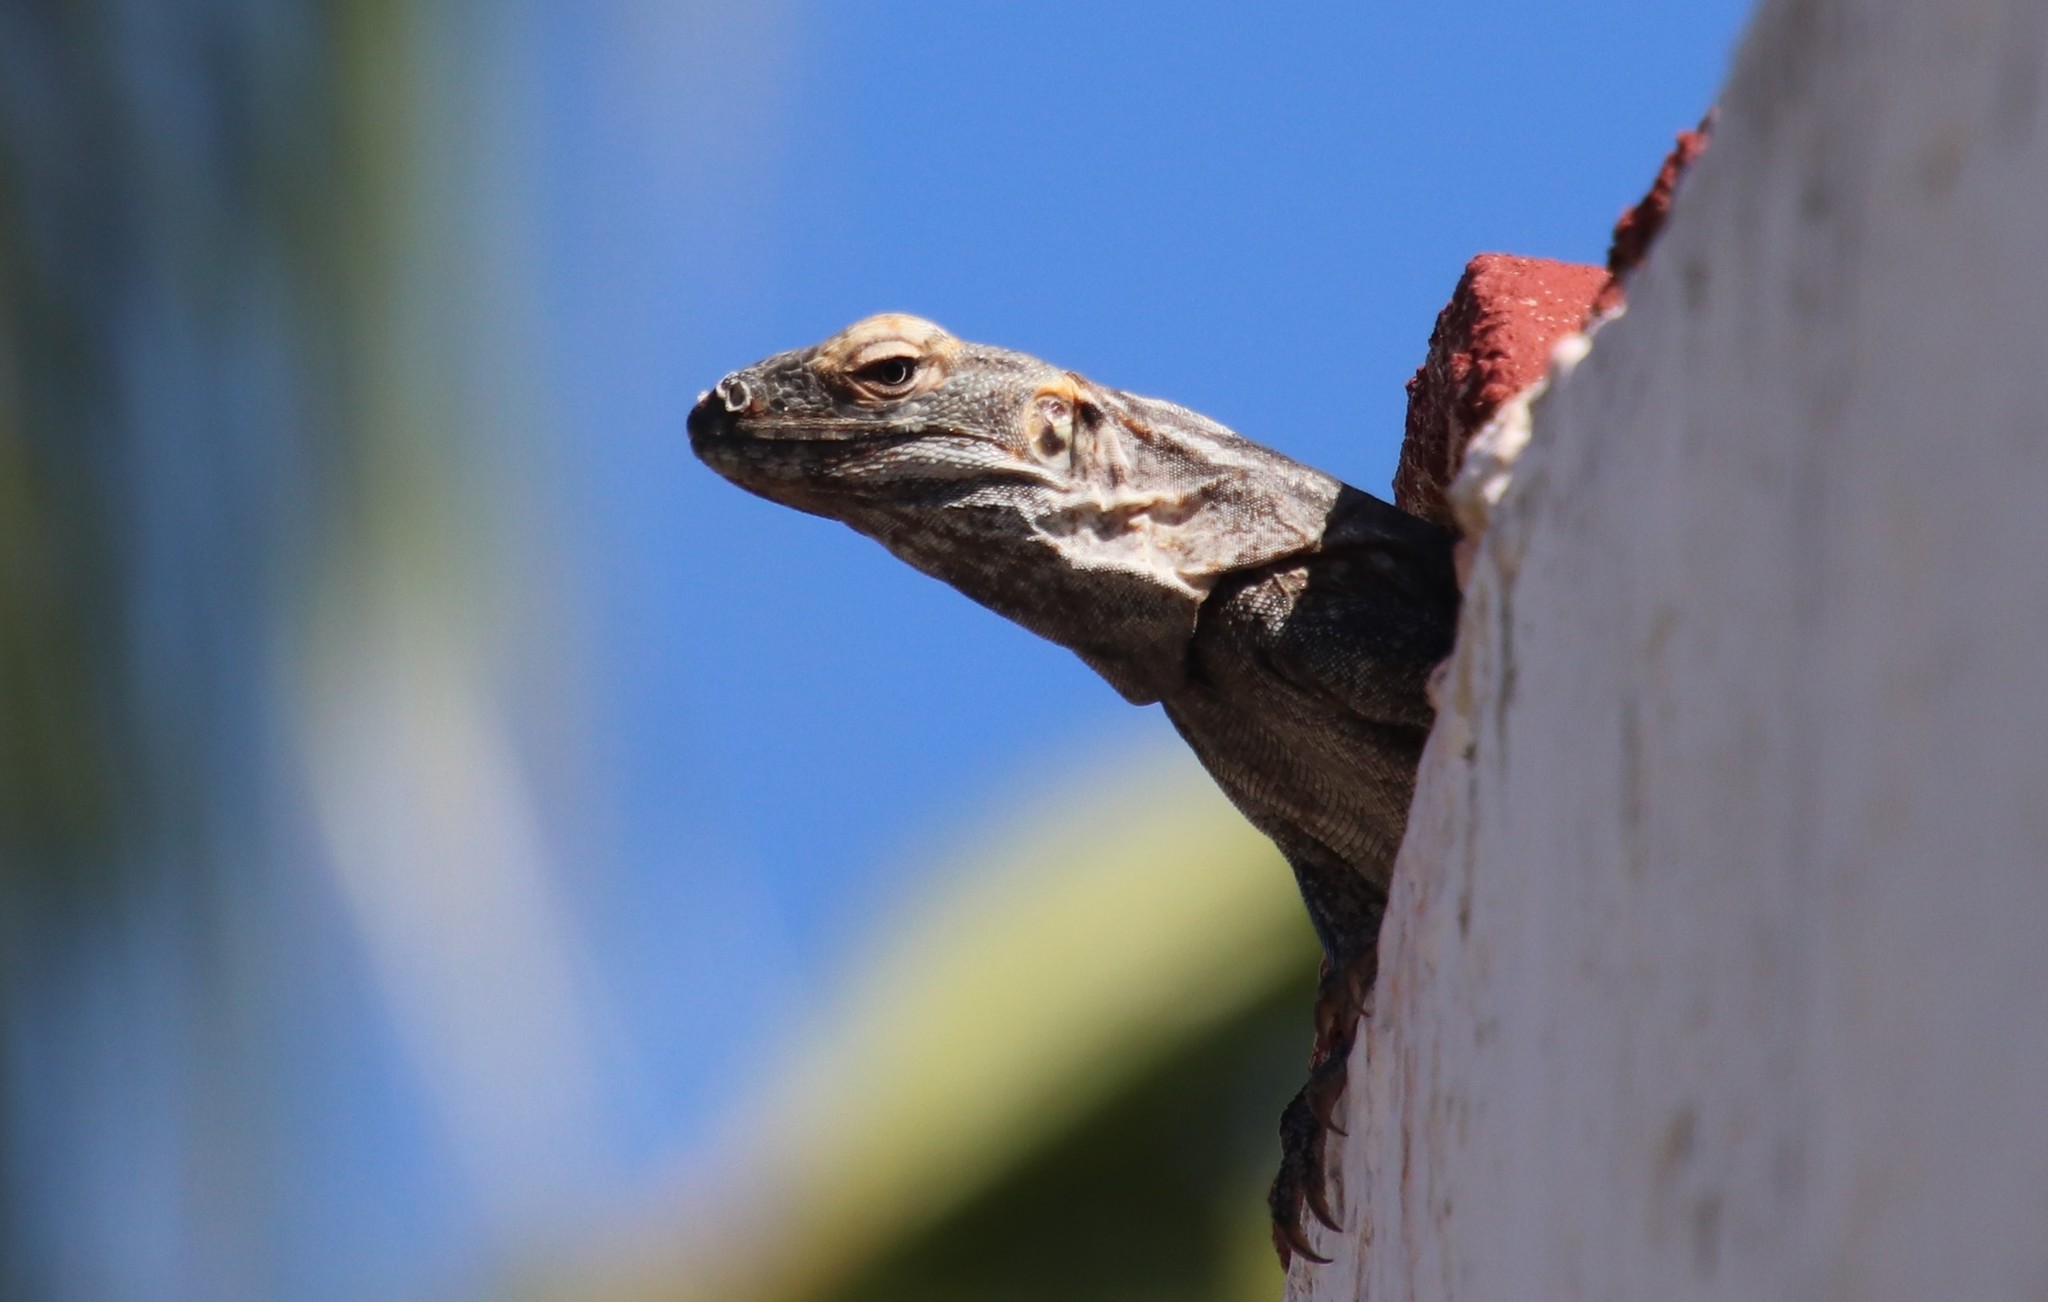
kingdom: Animalia
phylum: Chordata
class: Squamata
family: Iguanidae
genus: Ctenosaura
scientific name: Ctenosaura hemilopha
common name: Baja california spiny- tailed iguana
